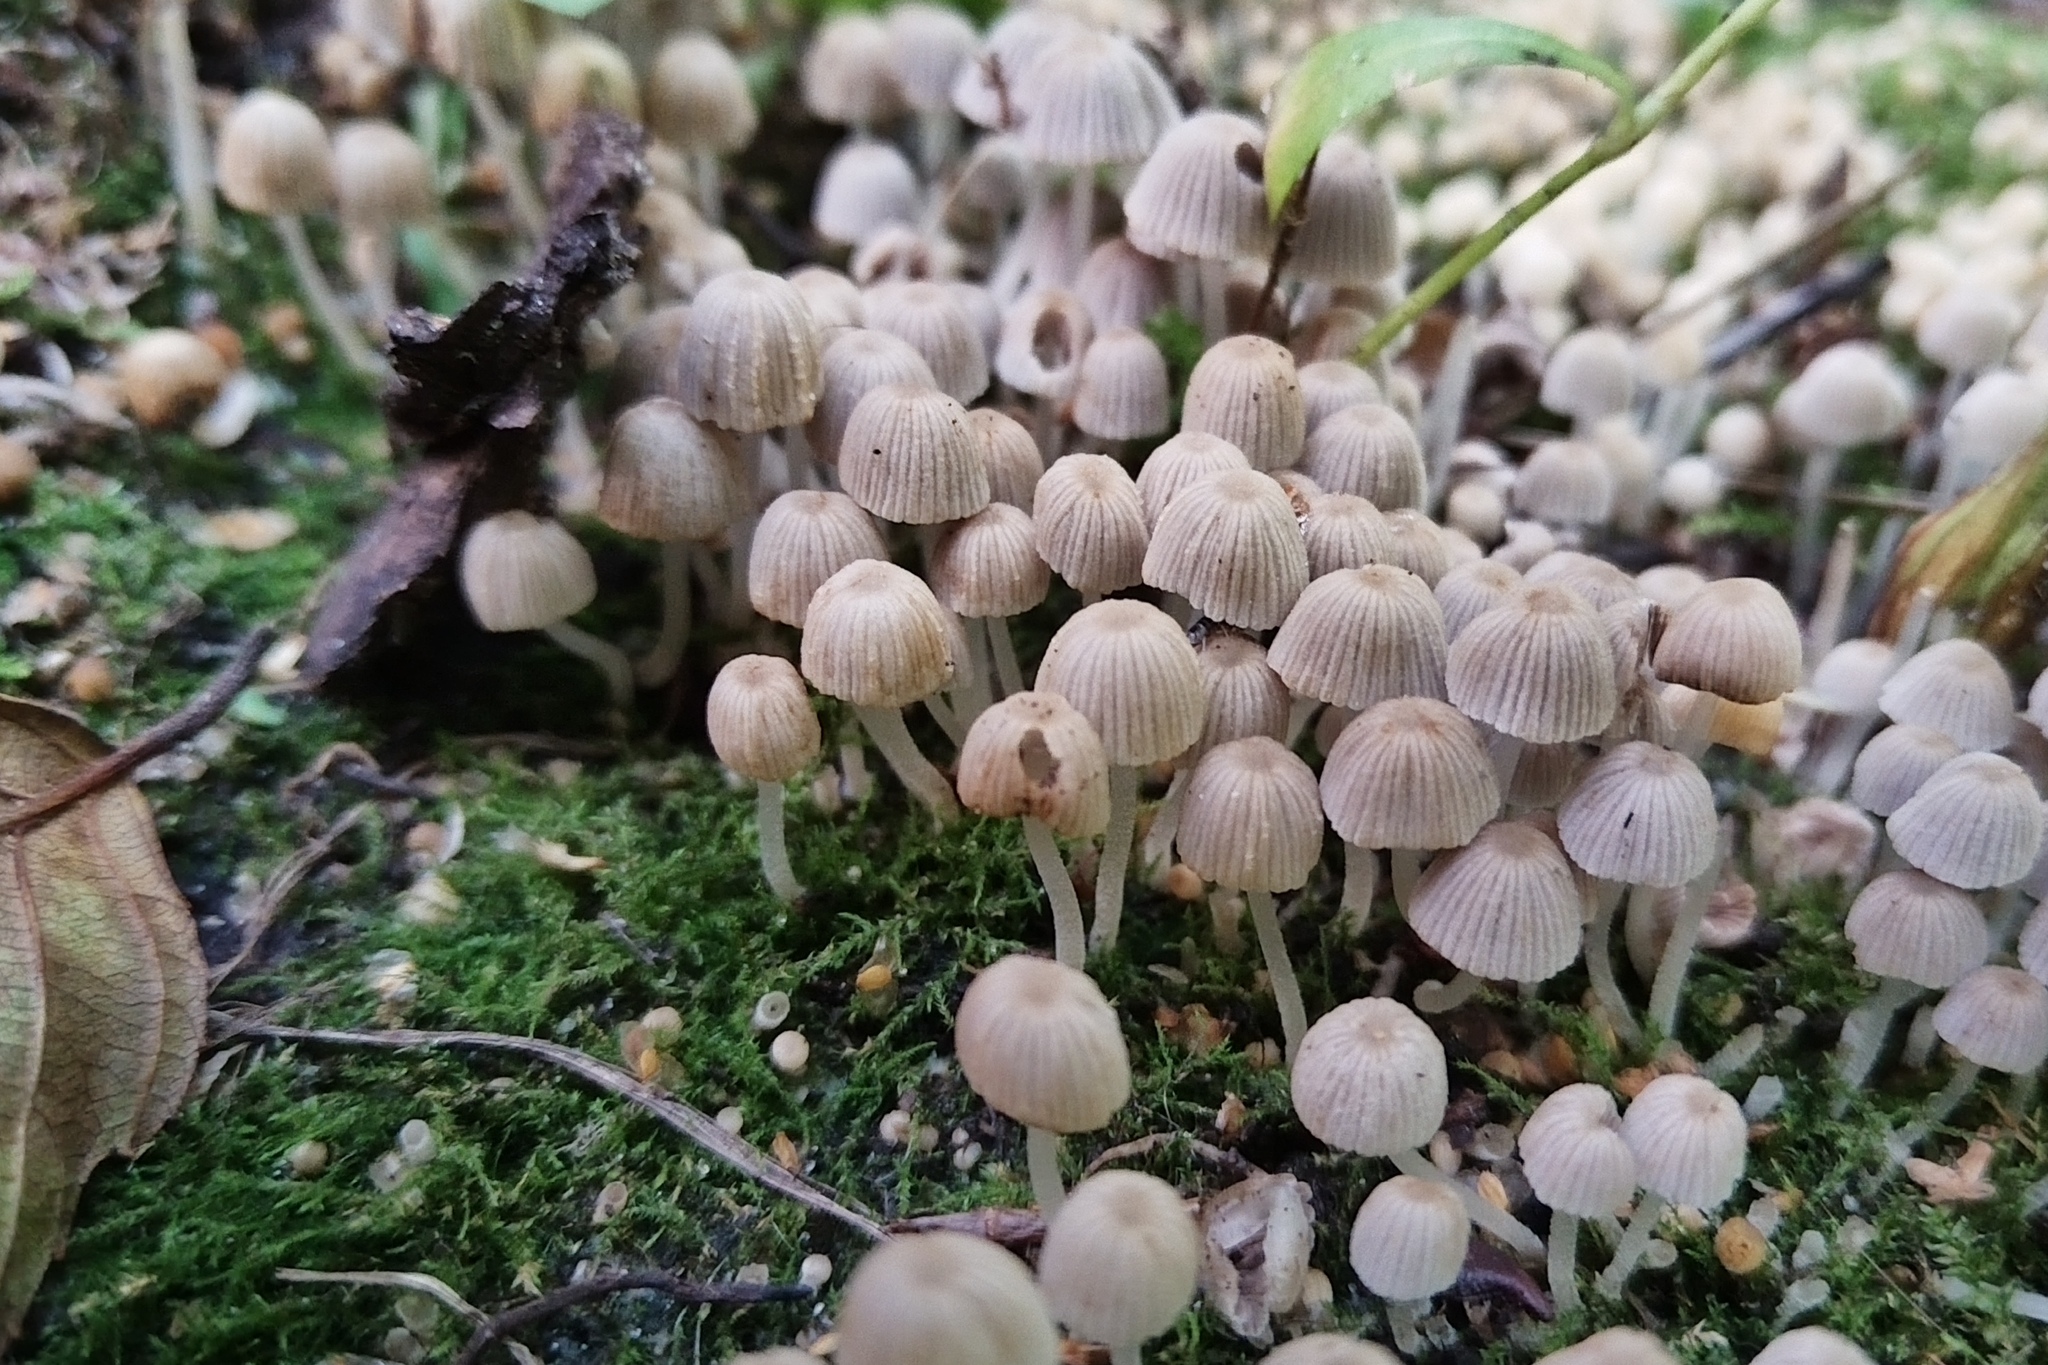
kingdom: Fungi
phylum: Basidiomycota
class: Agaricomycetes
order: Agaricales
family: Psathyrellaceae
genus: Coprinellus
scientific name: Coprinellus disseminatus
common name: Fairies' bonnets
